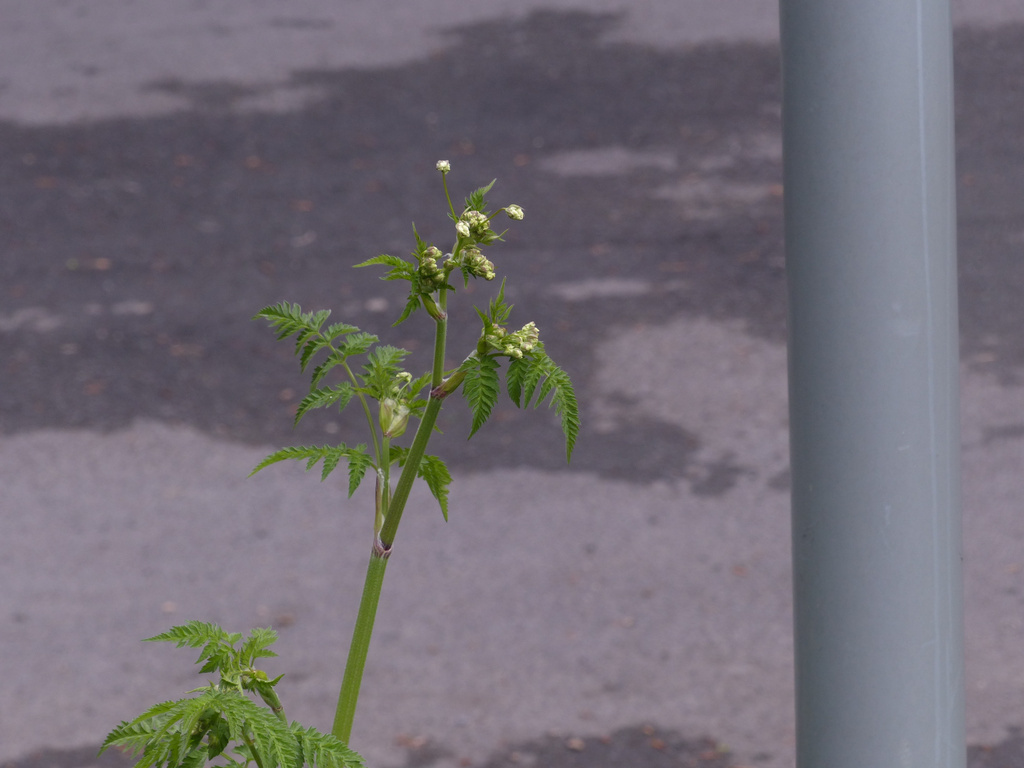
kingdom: Plantae
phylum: Tracheophyta
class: Magnoliopsida
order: Apiales
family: Apiaceae
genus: Anthriscus
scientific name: Anthriscus sylvestris
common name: Cow parsley
